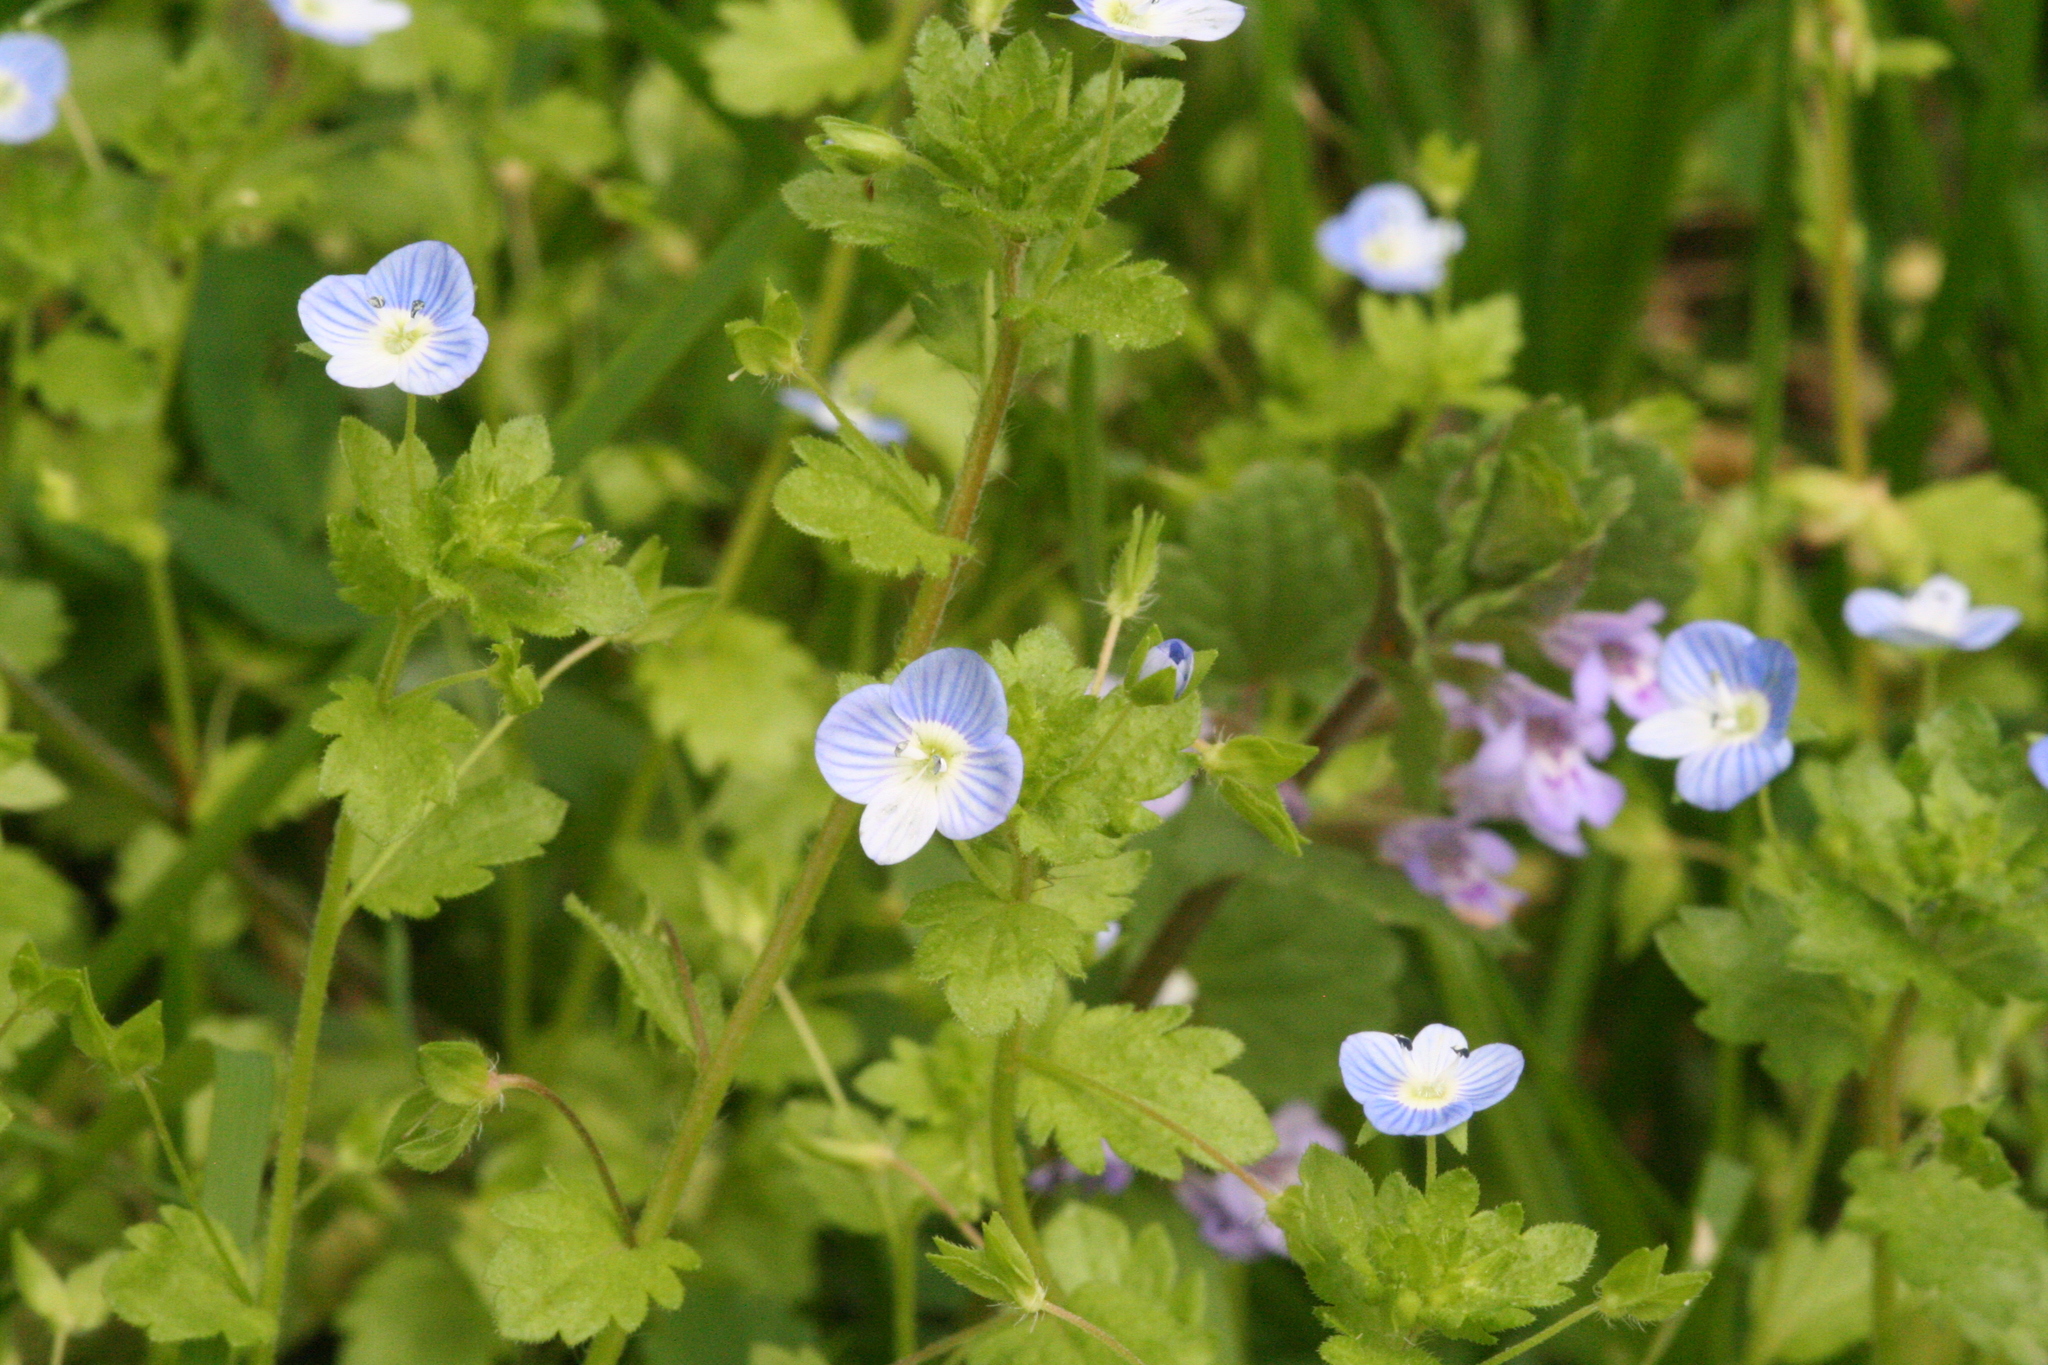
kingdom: Plantae
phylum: Tracheophyta
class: Magnoliopsida
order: Lamiales
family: Plantaginaceae
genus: Veronica
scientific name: Veronica persica
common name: Common field-speedwell
